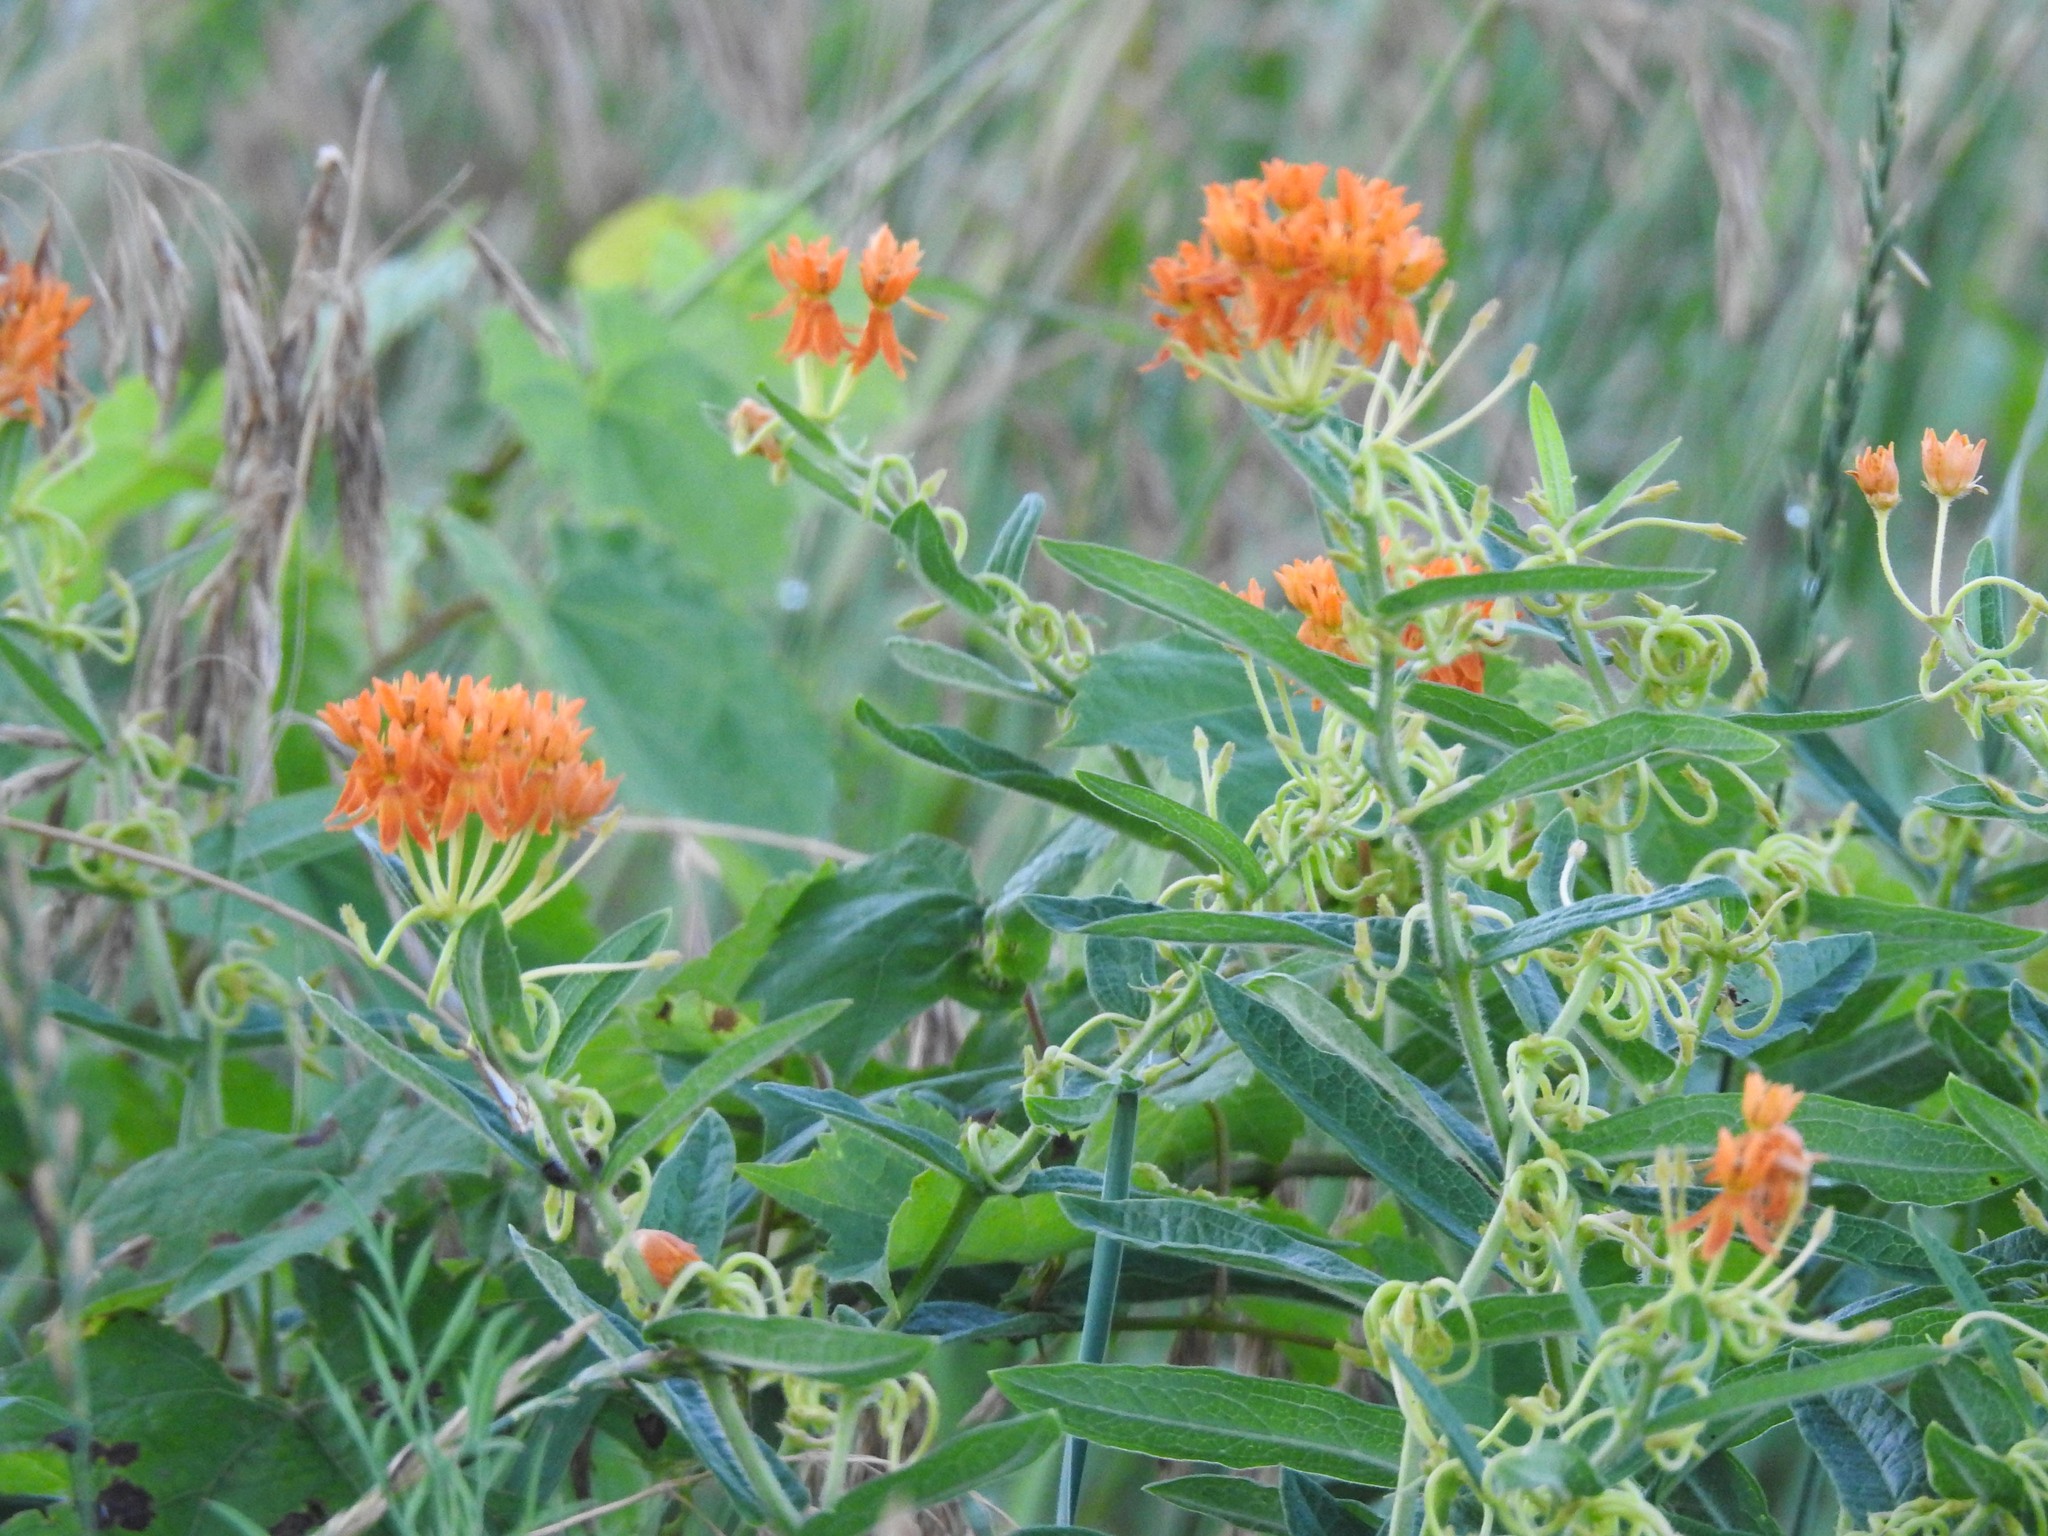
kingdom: Plantae
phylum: Tracheophyta
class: Magnoliopsida
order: Gentianales
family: Apocynaceae
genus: Asclepias
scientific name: Asclepias tuberosa
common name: Butterfly milkweed
